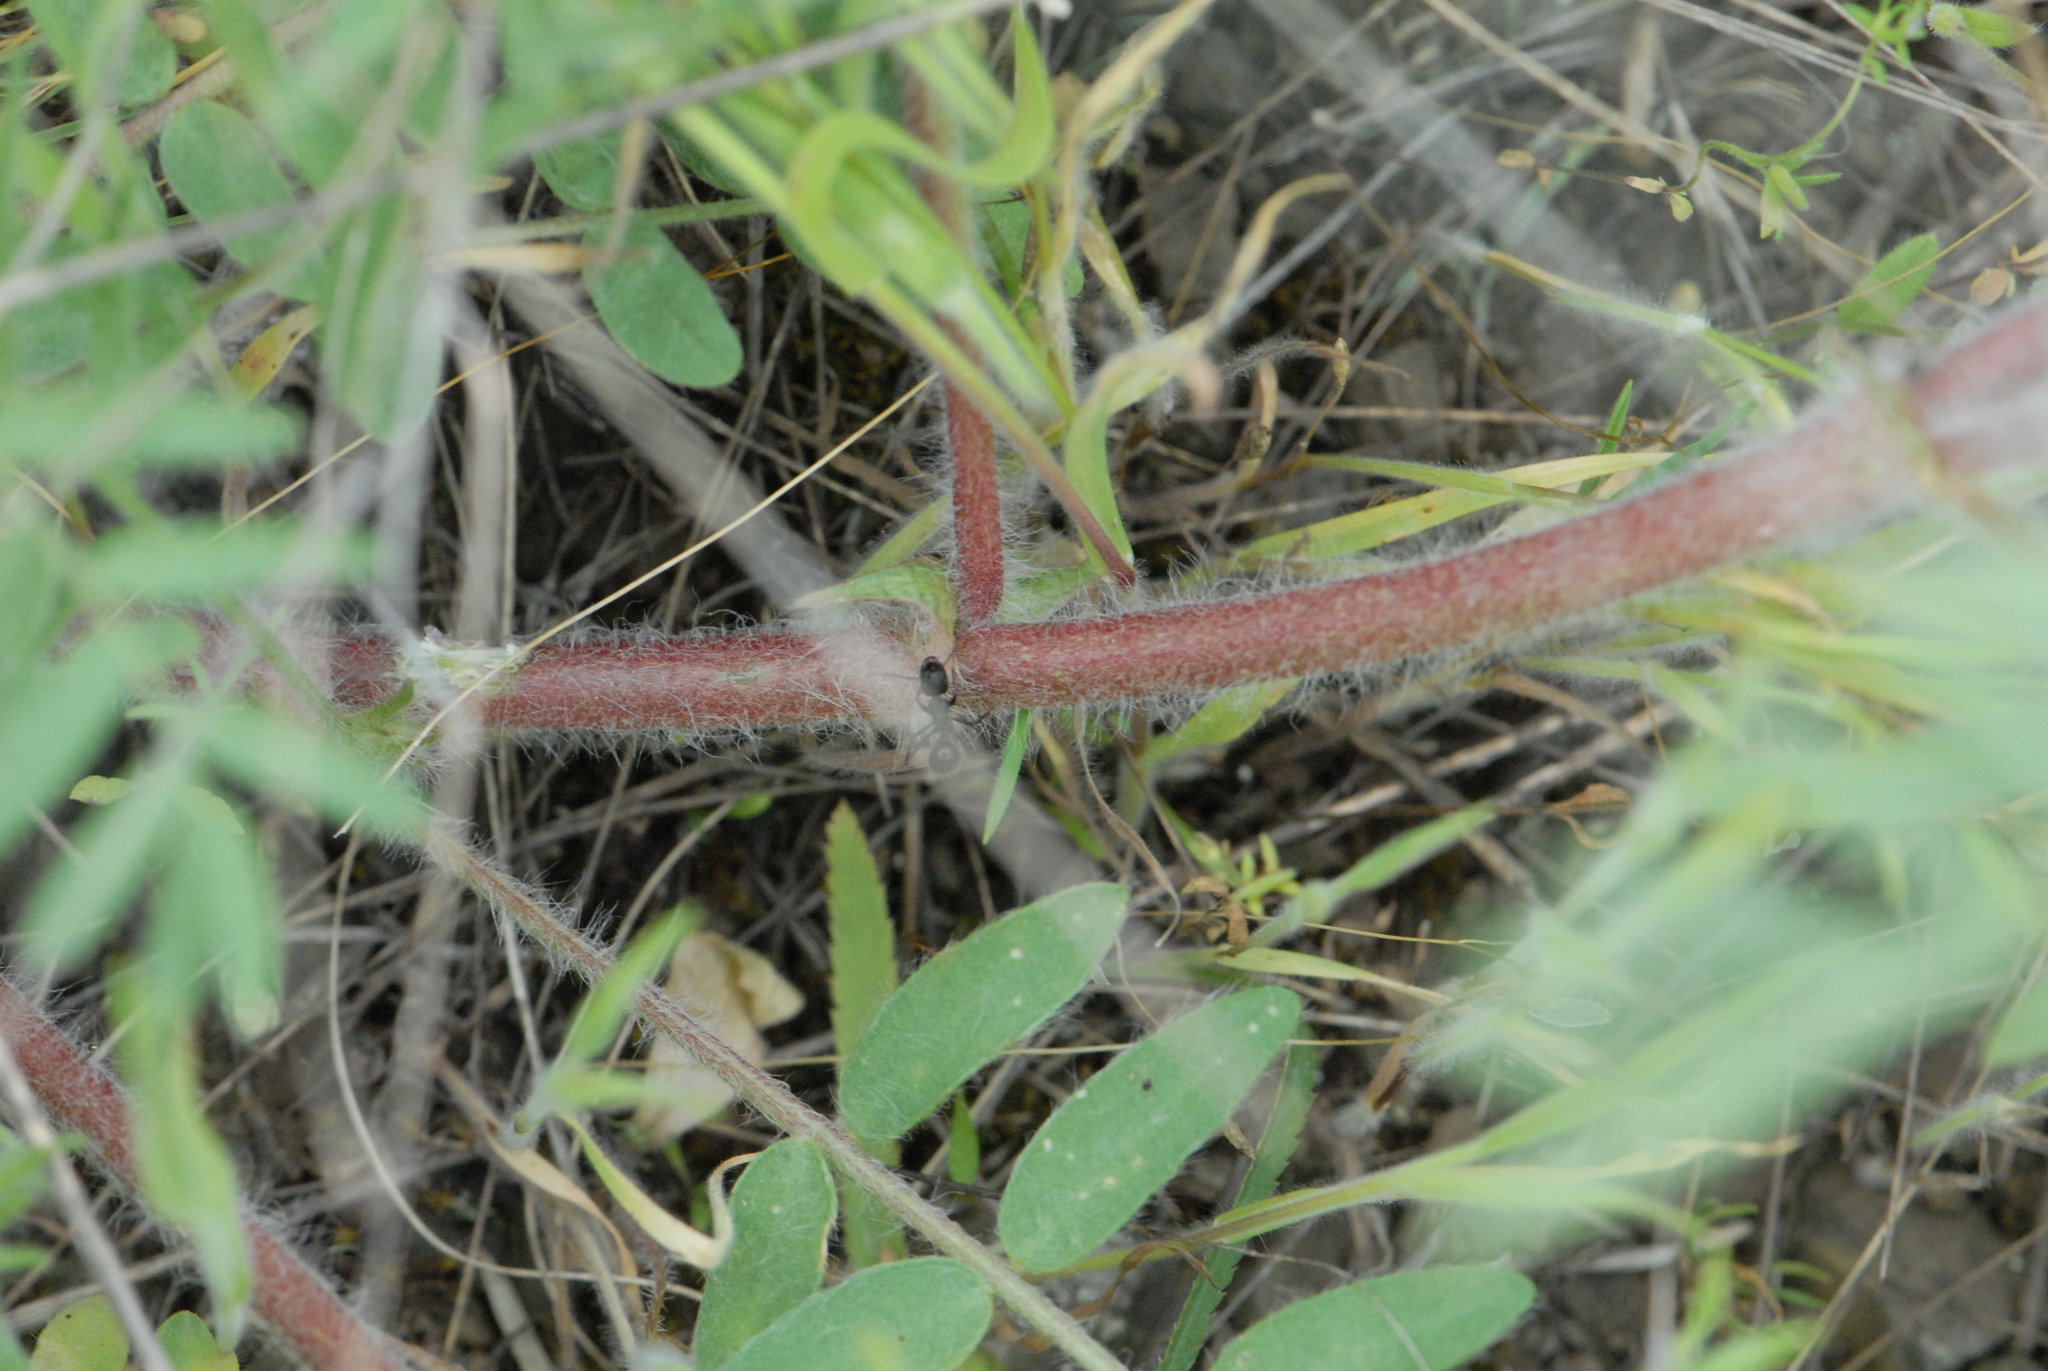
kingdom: Plantae
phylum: Tracheophyta
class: Magnoliopsida
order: Fabales
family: Fabaceae
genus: Oxytropis
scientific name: Oxytropis pilosa
